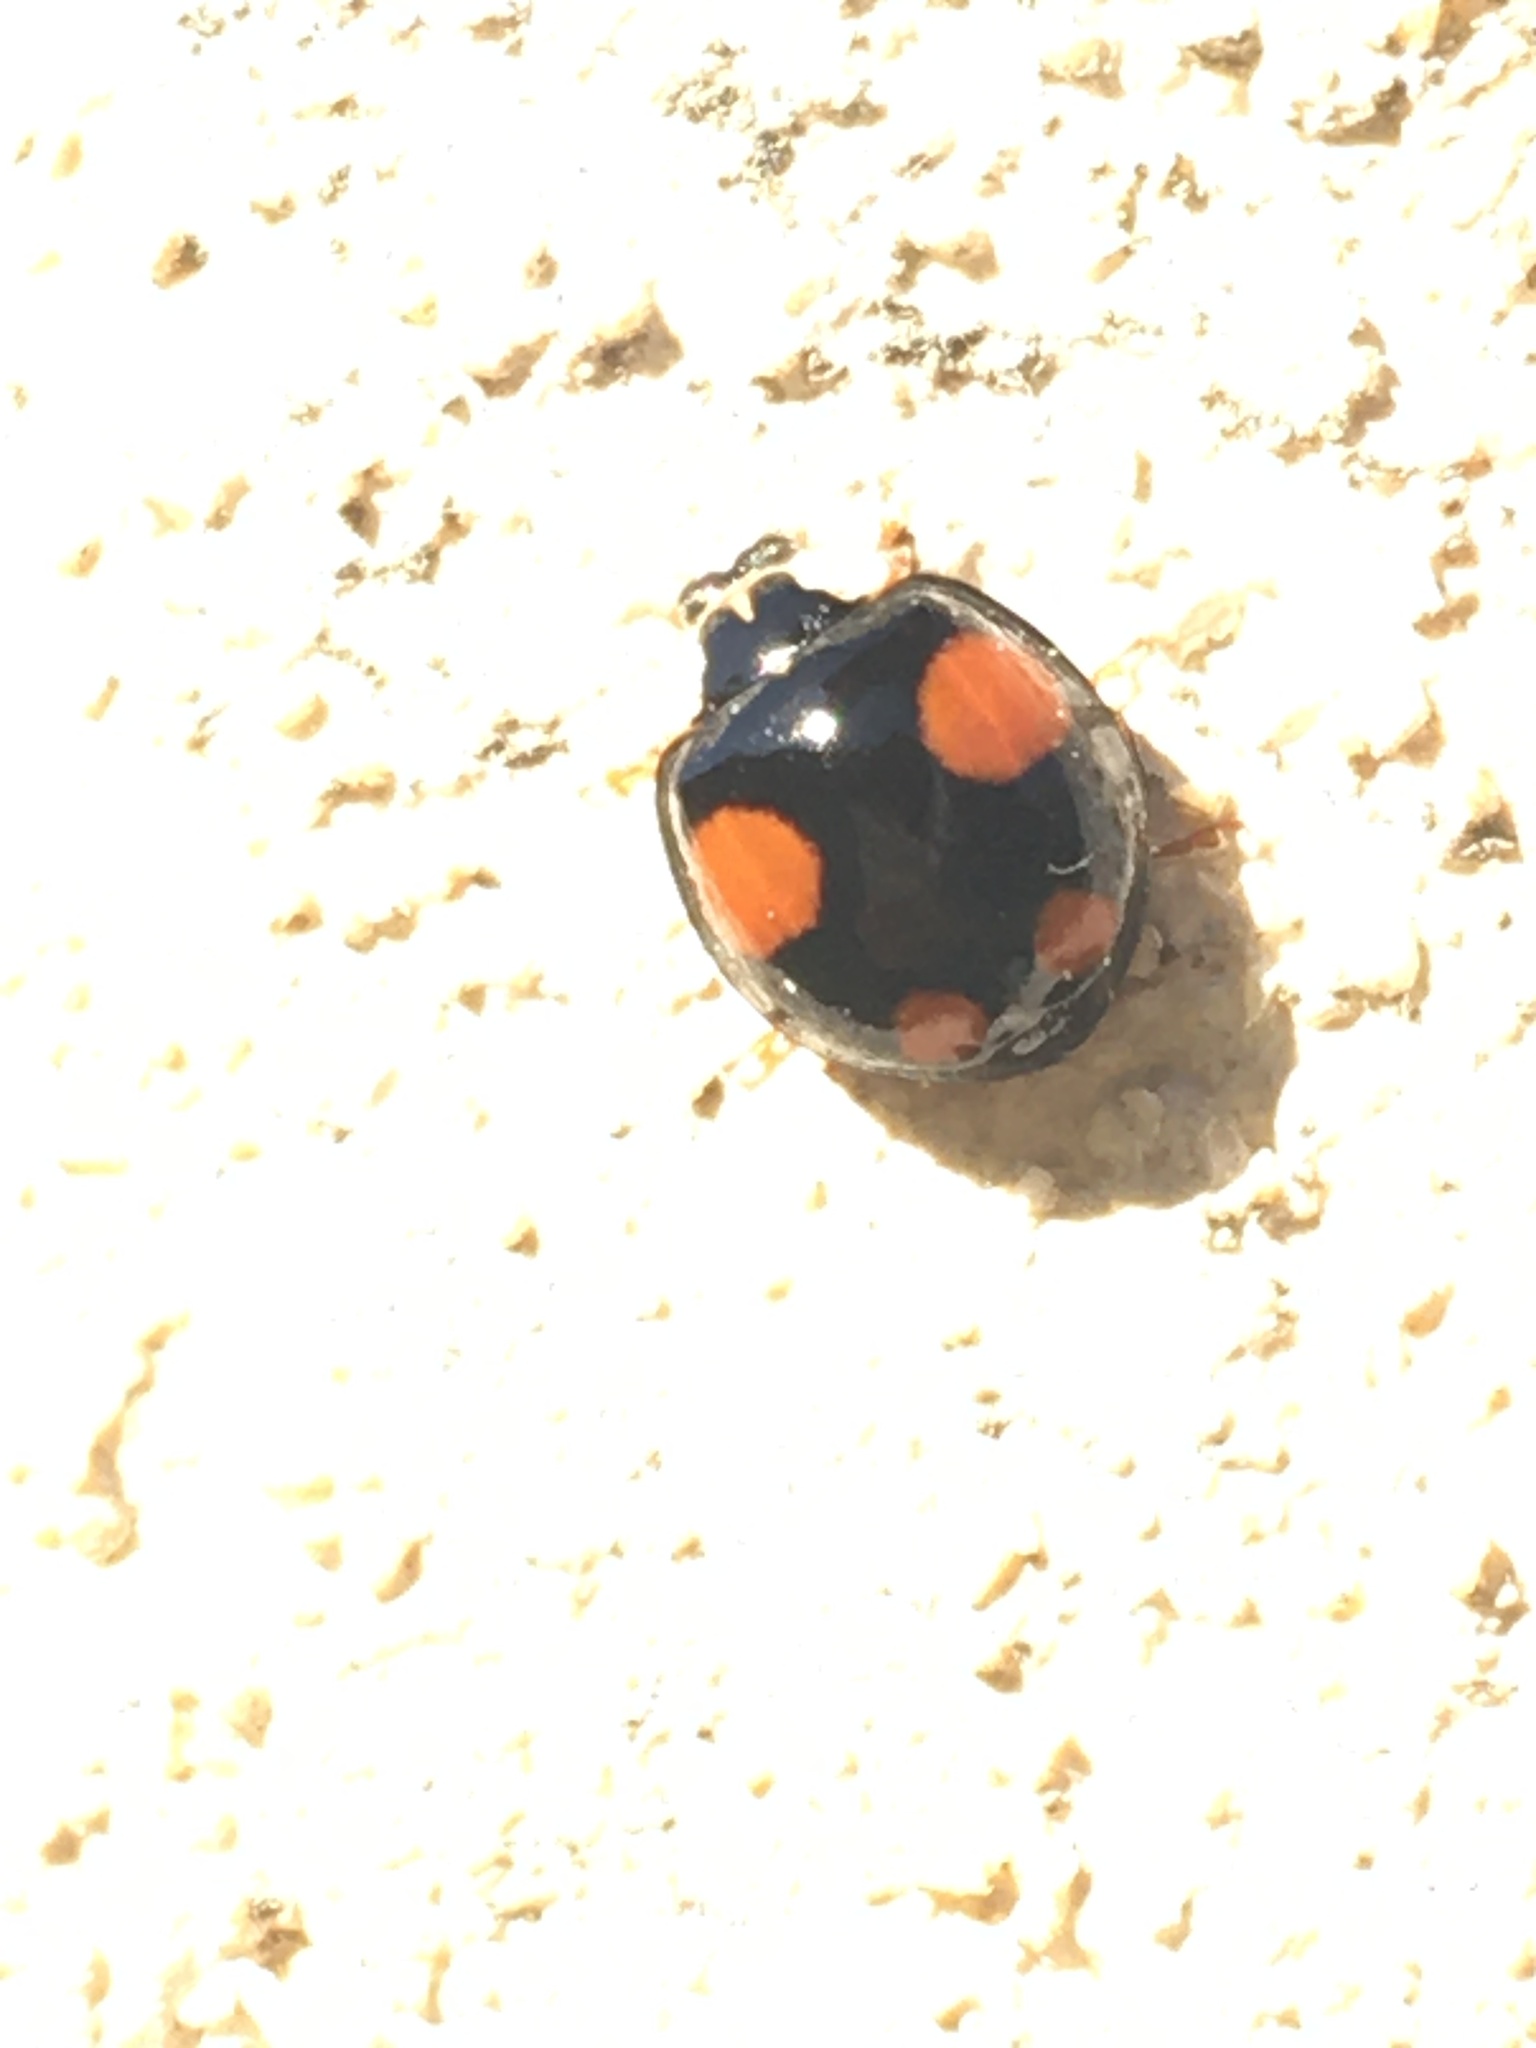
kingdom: Animalia
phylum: Arthropoda
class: Insecta
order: Coleoptera
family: Coccinellidae
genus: Harmonia
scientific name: Harmonia axyridis
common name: Harlequin ladybird
